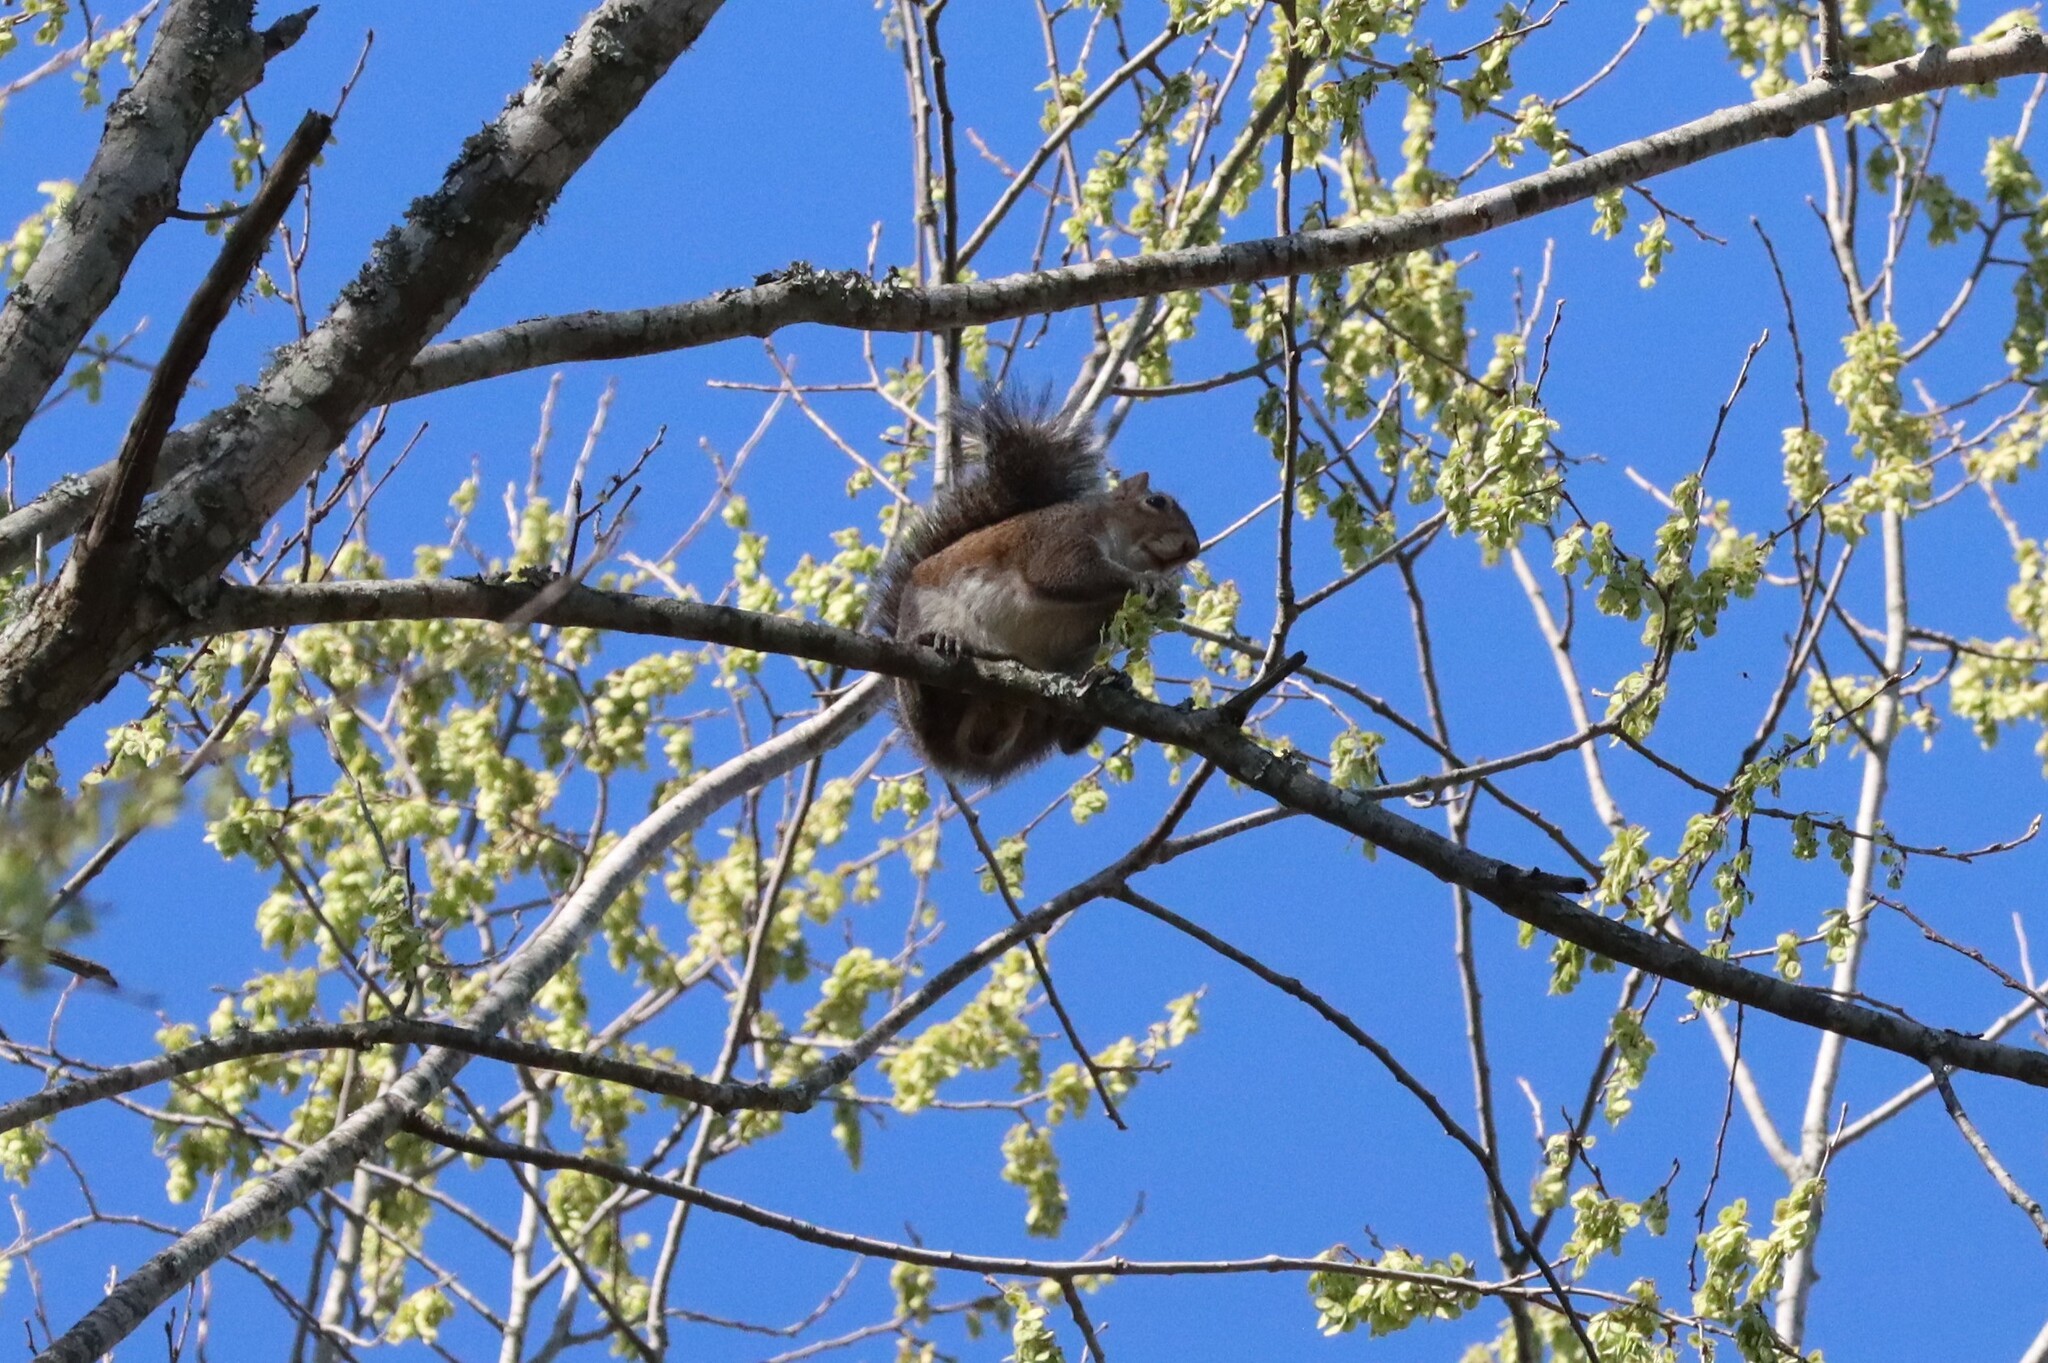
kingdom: Animalia
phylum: Chordata
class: Mammalia
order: Rodentia
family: Sciuridae
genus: Sciurus
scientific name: Sciurus carolinensis
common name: Eastern gray squirrel
